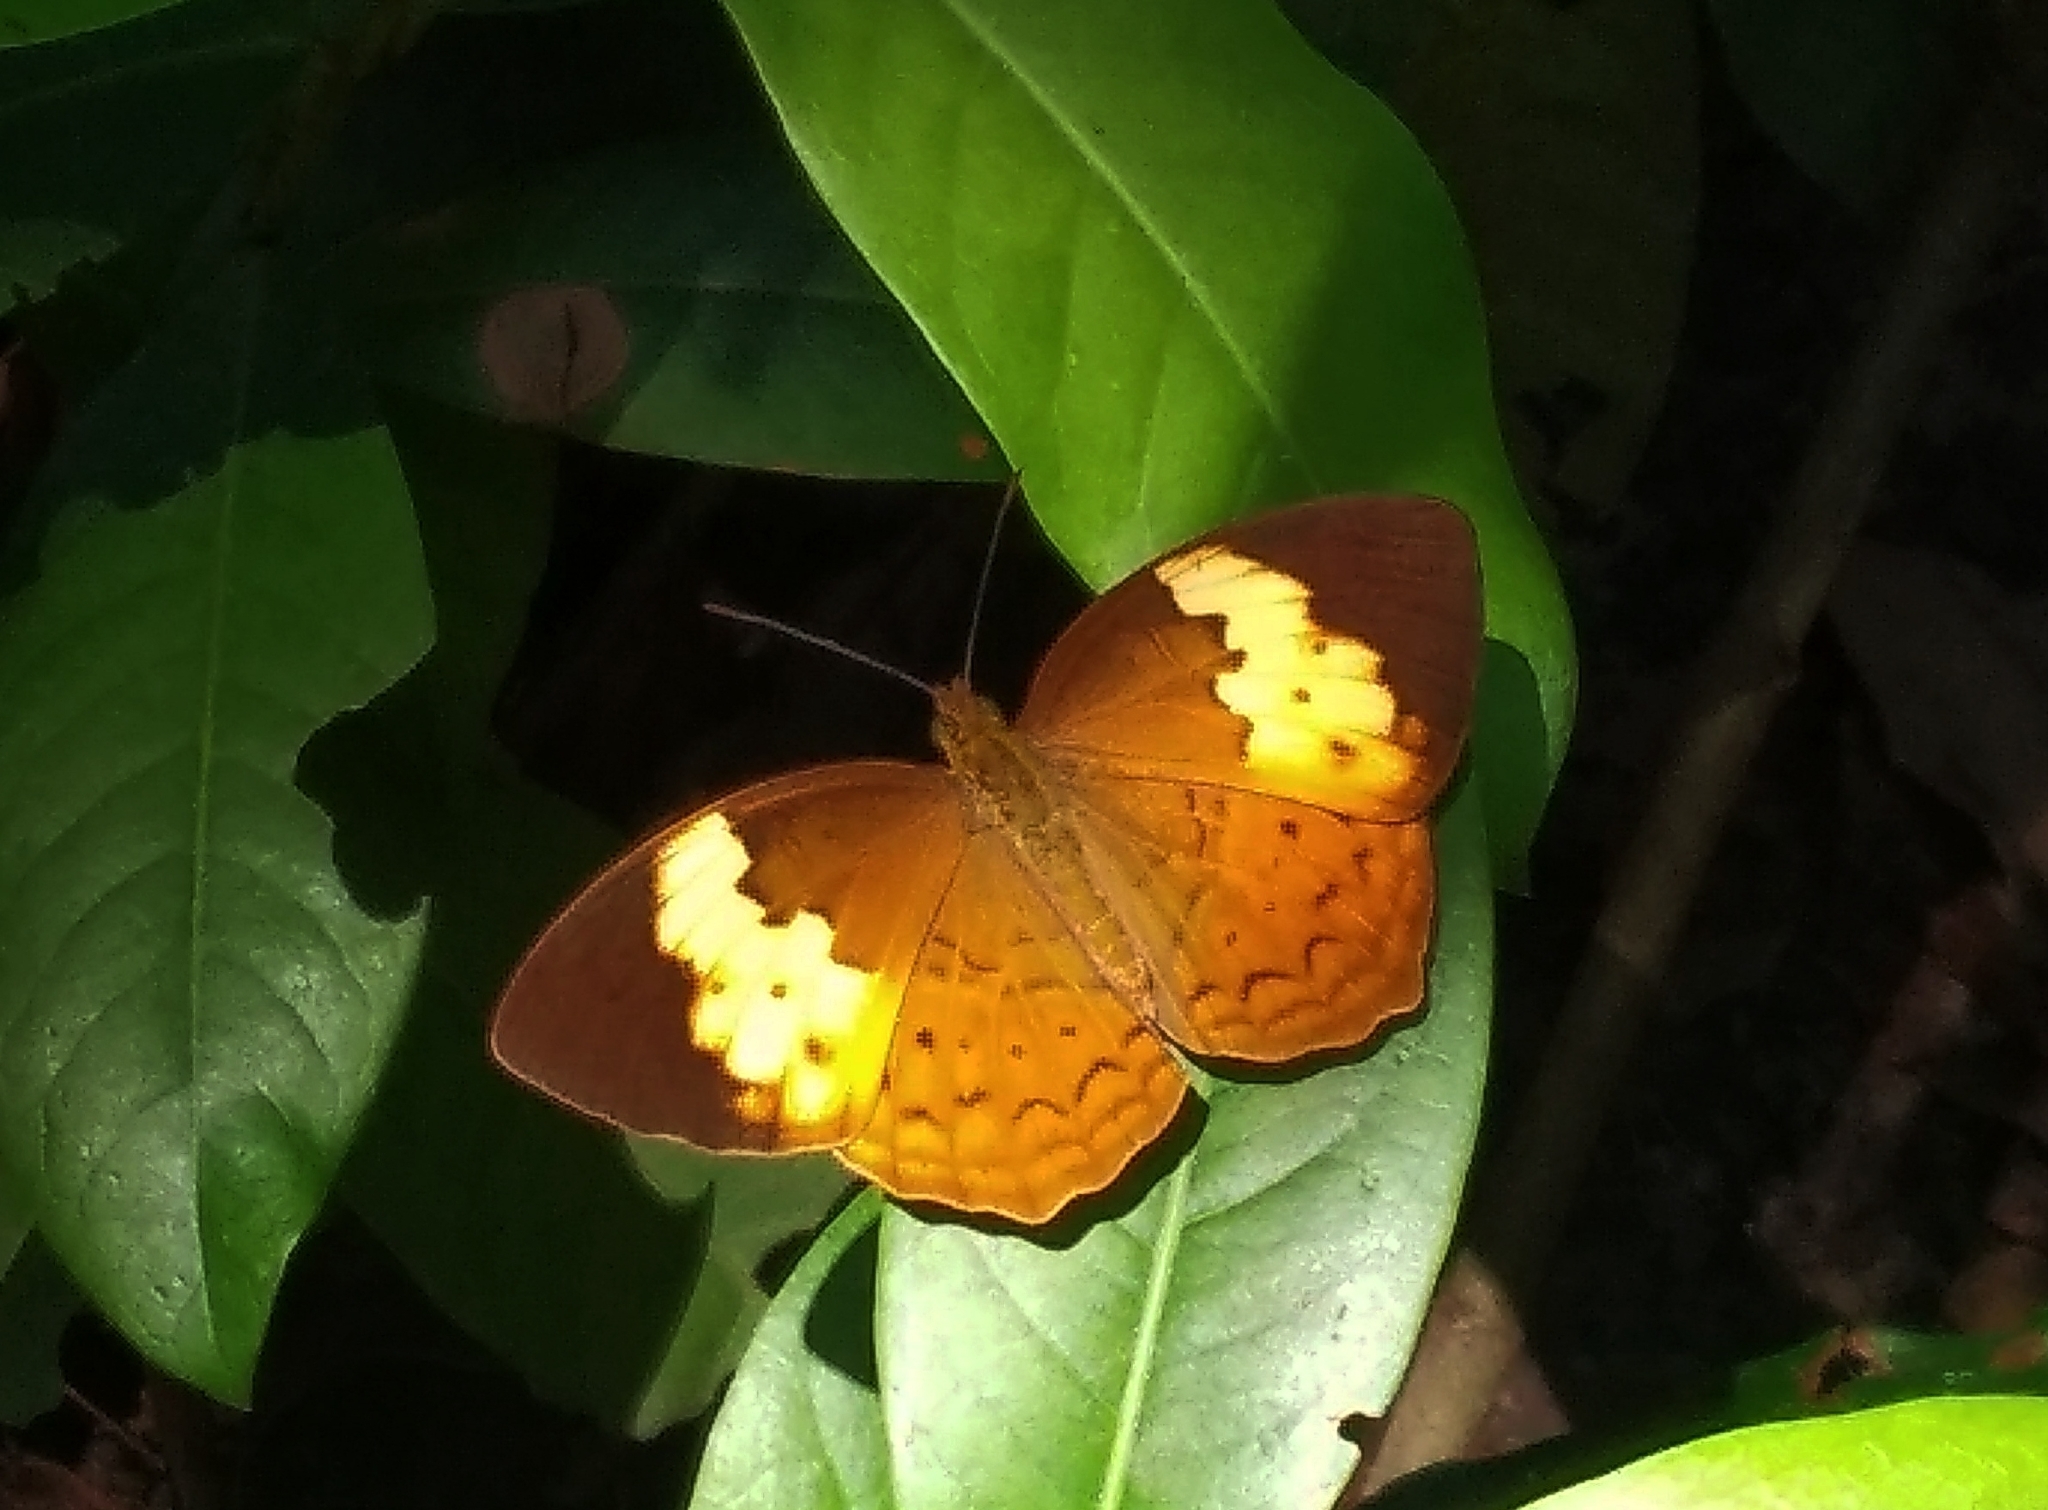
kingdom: Animalia
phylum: Arthropoda
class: Insecta
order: Lepidoptera
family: Nymphalidae
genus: Cupha
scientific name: Cupha erymanthis
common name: Rustic
